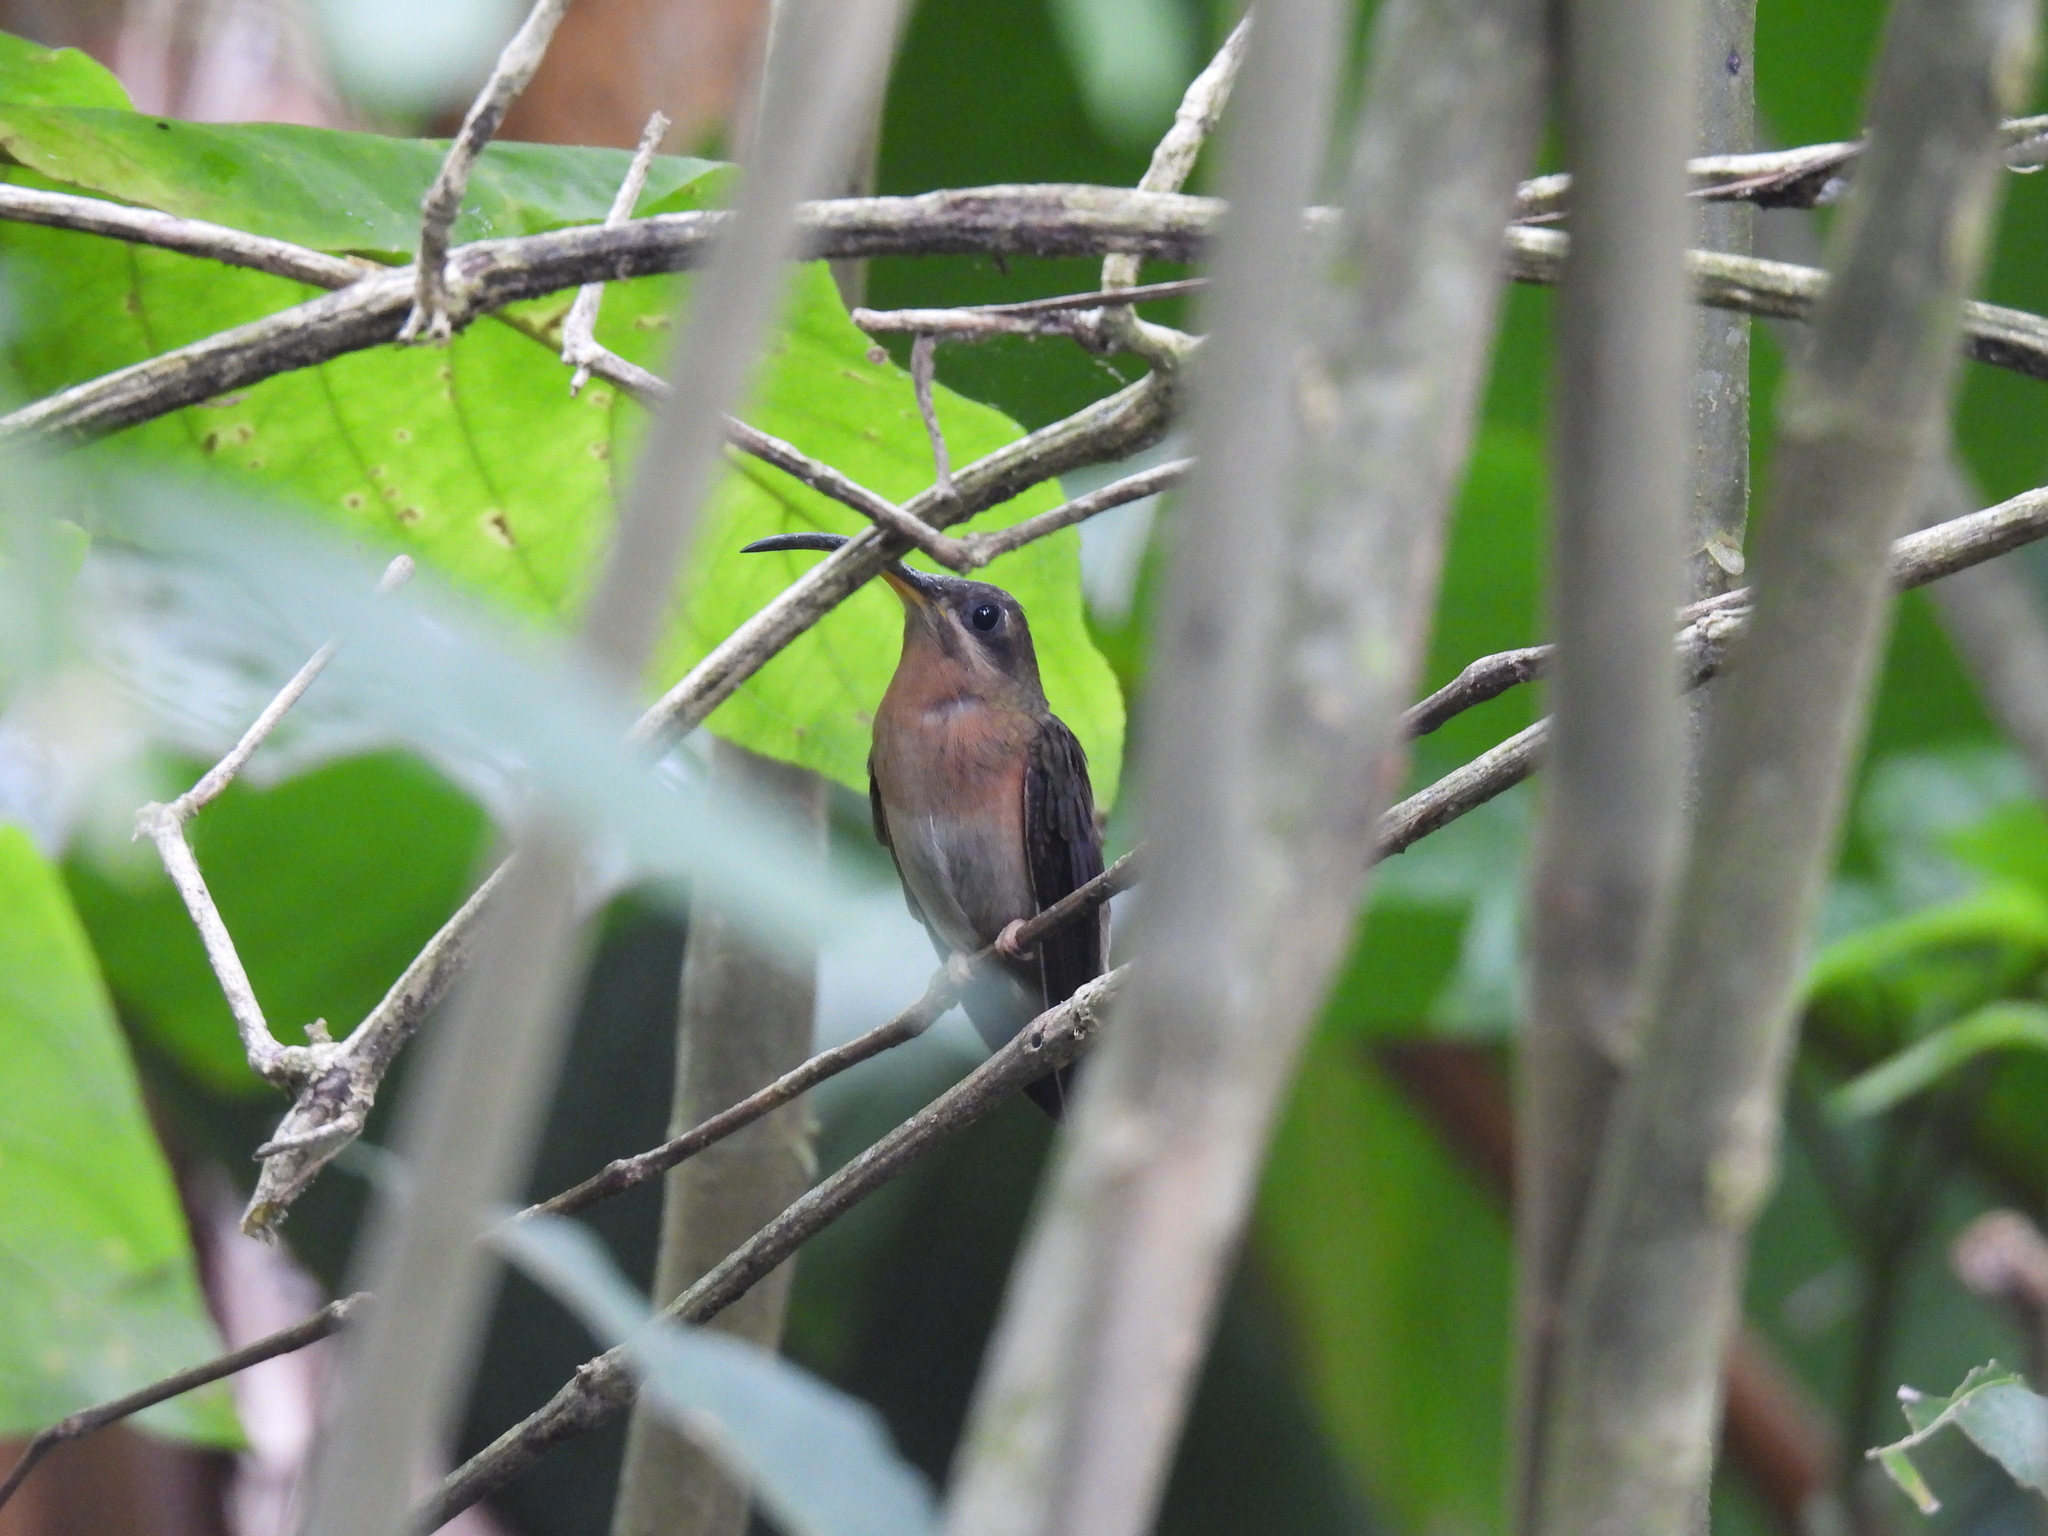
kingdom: Animalia
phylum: Chordata
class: Aves
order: Apodiformes
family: Trochilidae
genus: Glaucis
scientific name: Glaucis hirsutus
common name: Rufous-breasted hermit
